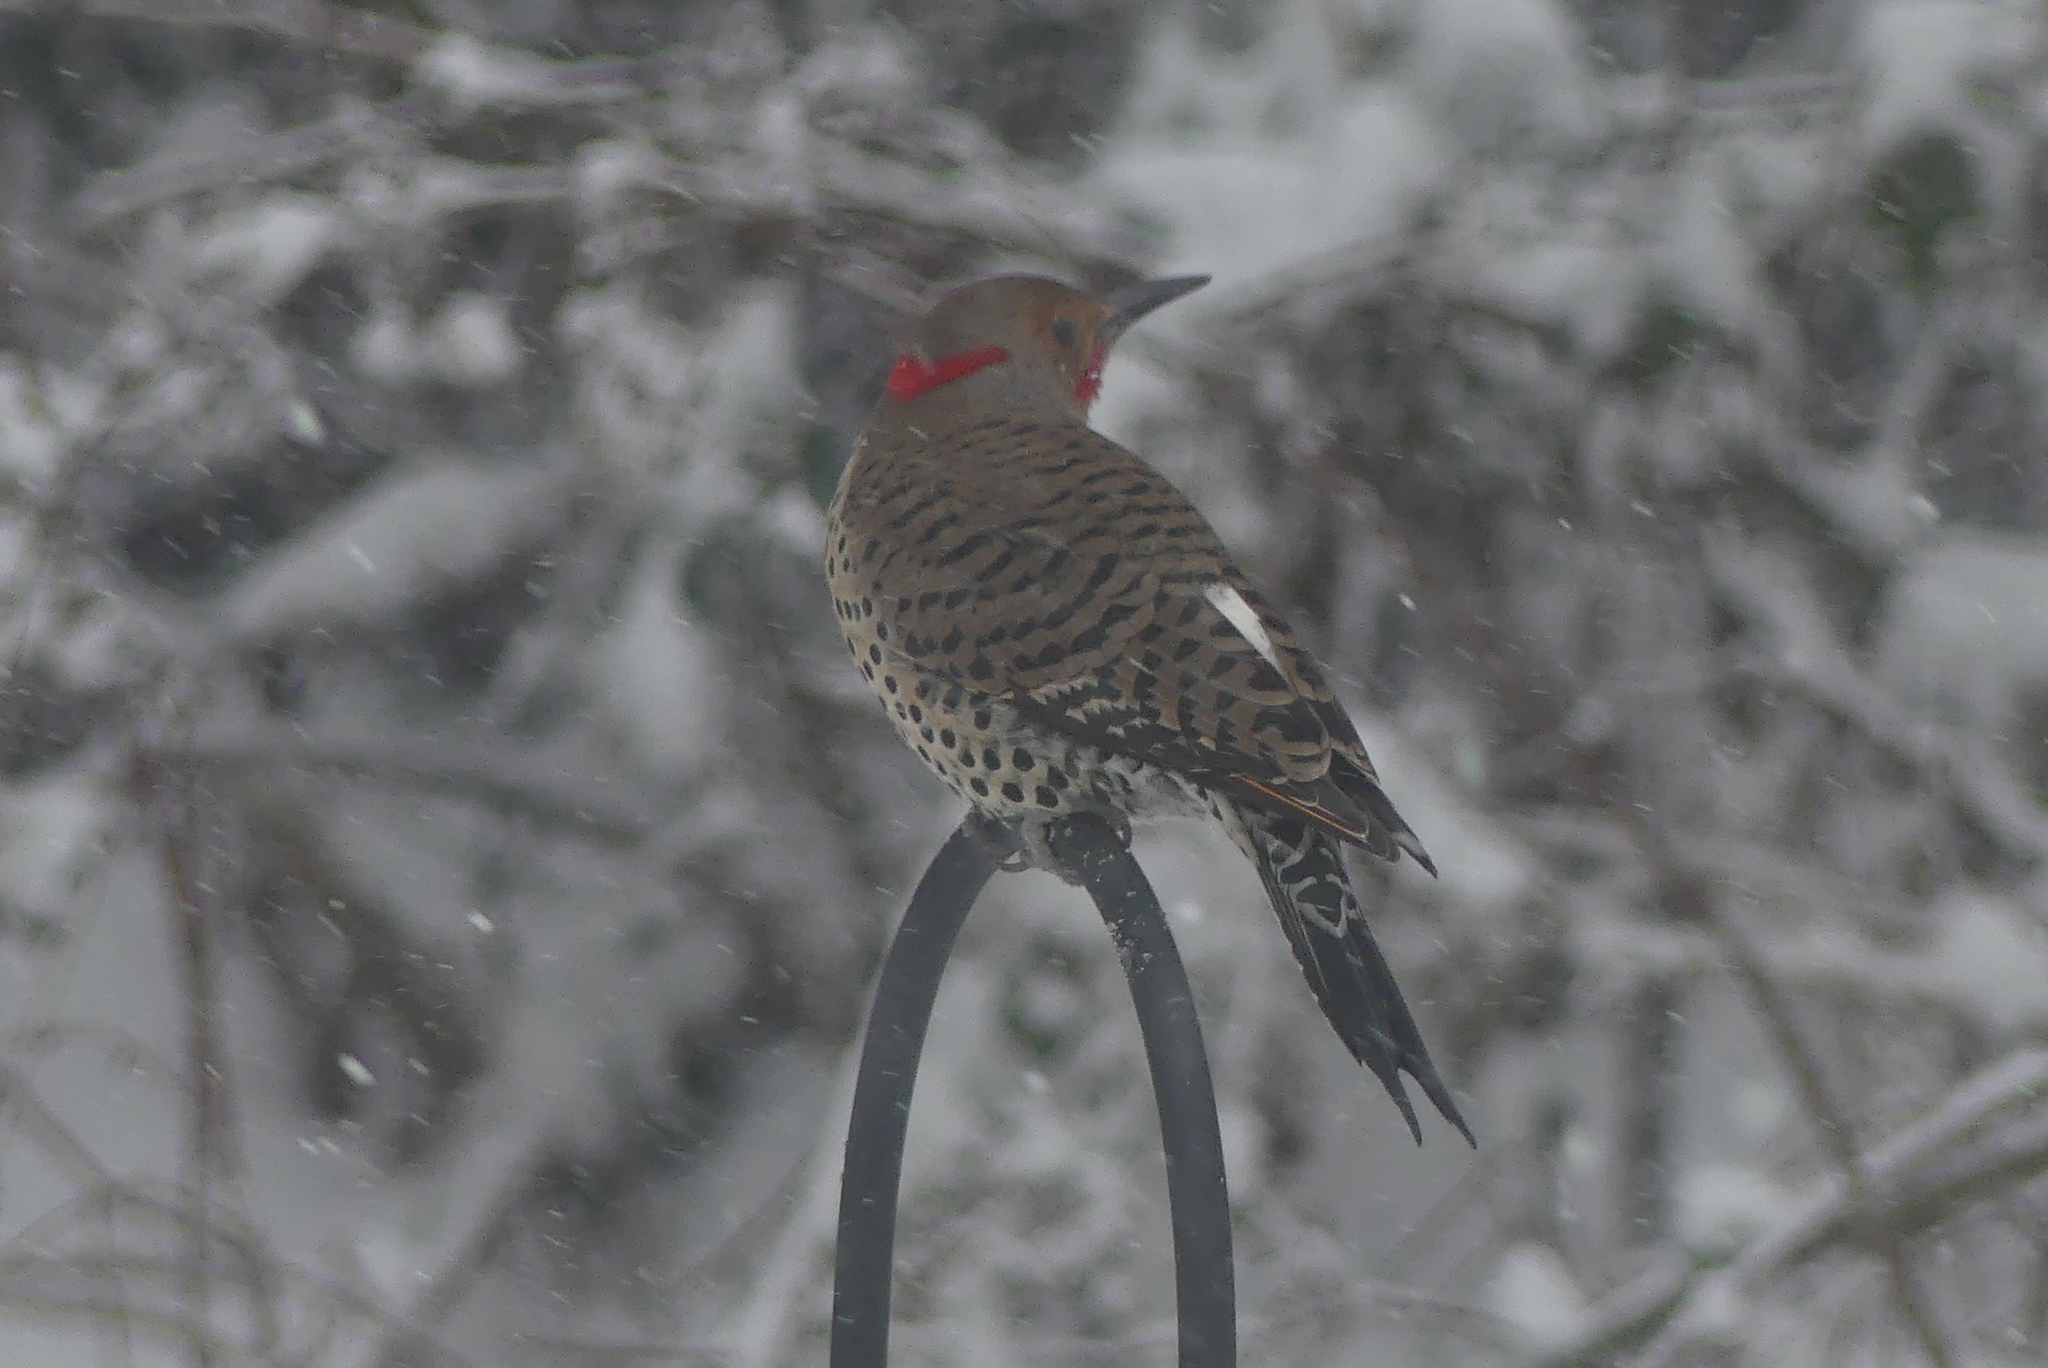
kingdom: Animalia
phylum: Chordata
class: Aves
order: Piciformes
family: Picidae
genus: Colaptes
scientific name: Colaptes auratus
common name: Northern flicker
